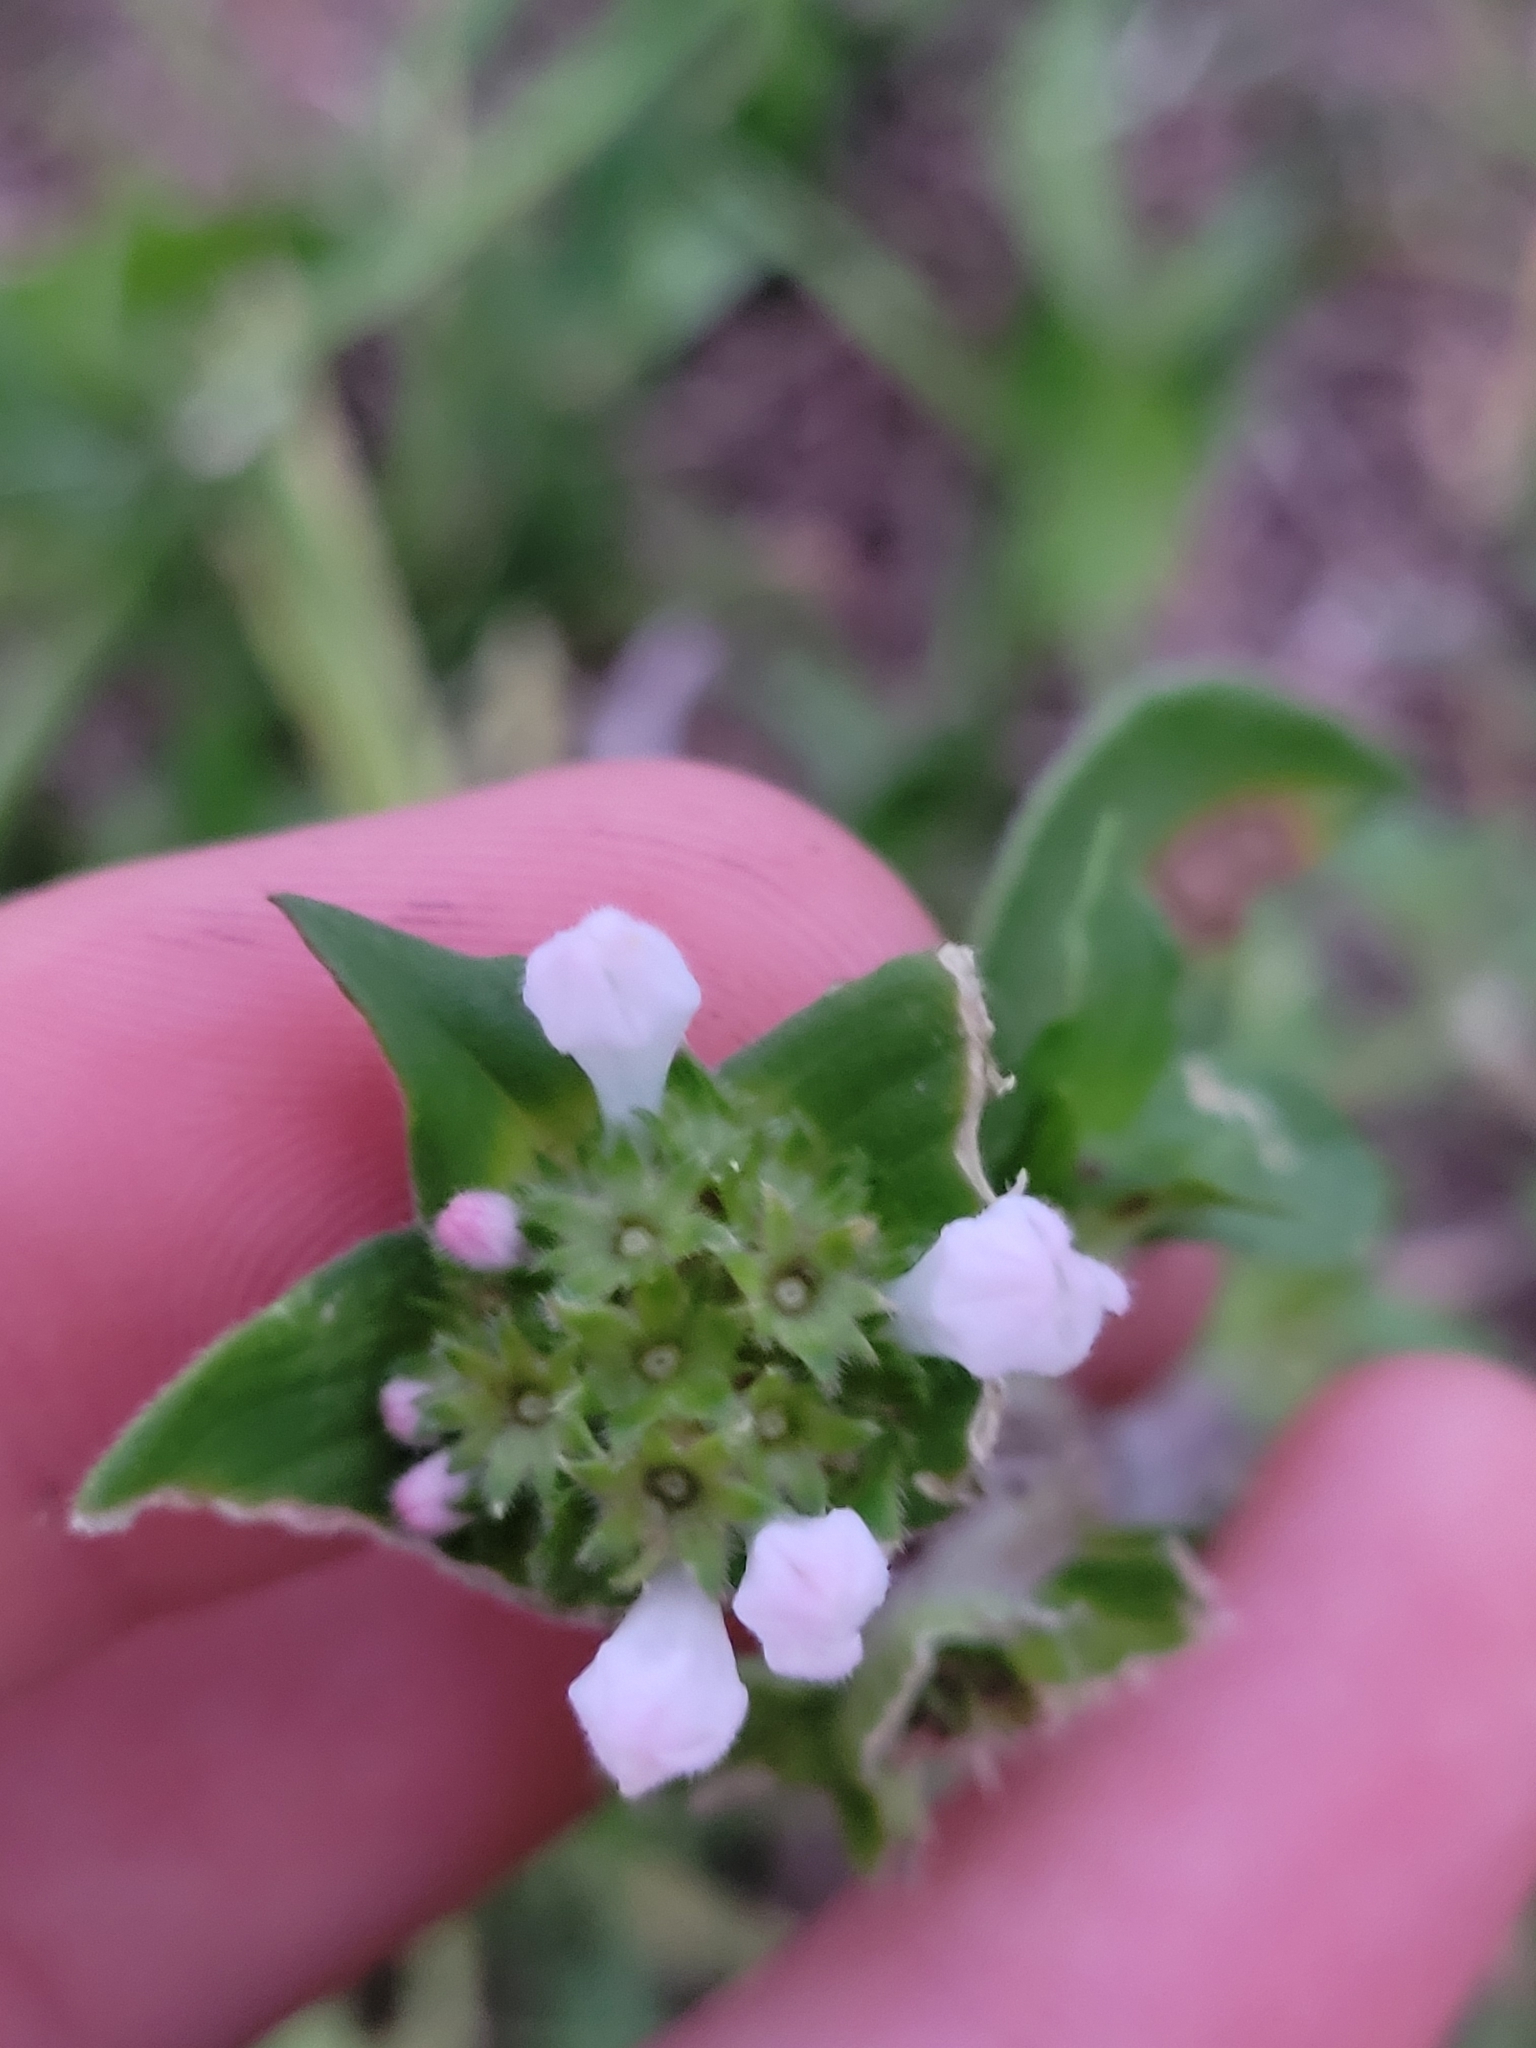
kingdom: Plantae
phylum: Tracheophyta
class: Magnoliopsida
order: Gentianales
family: Rubiaceae
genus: Richardia
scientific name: Richardia grandiflora
